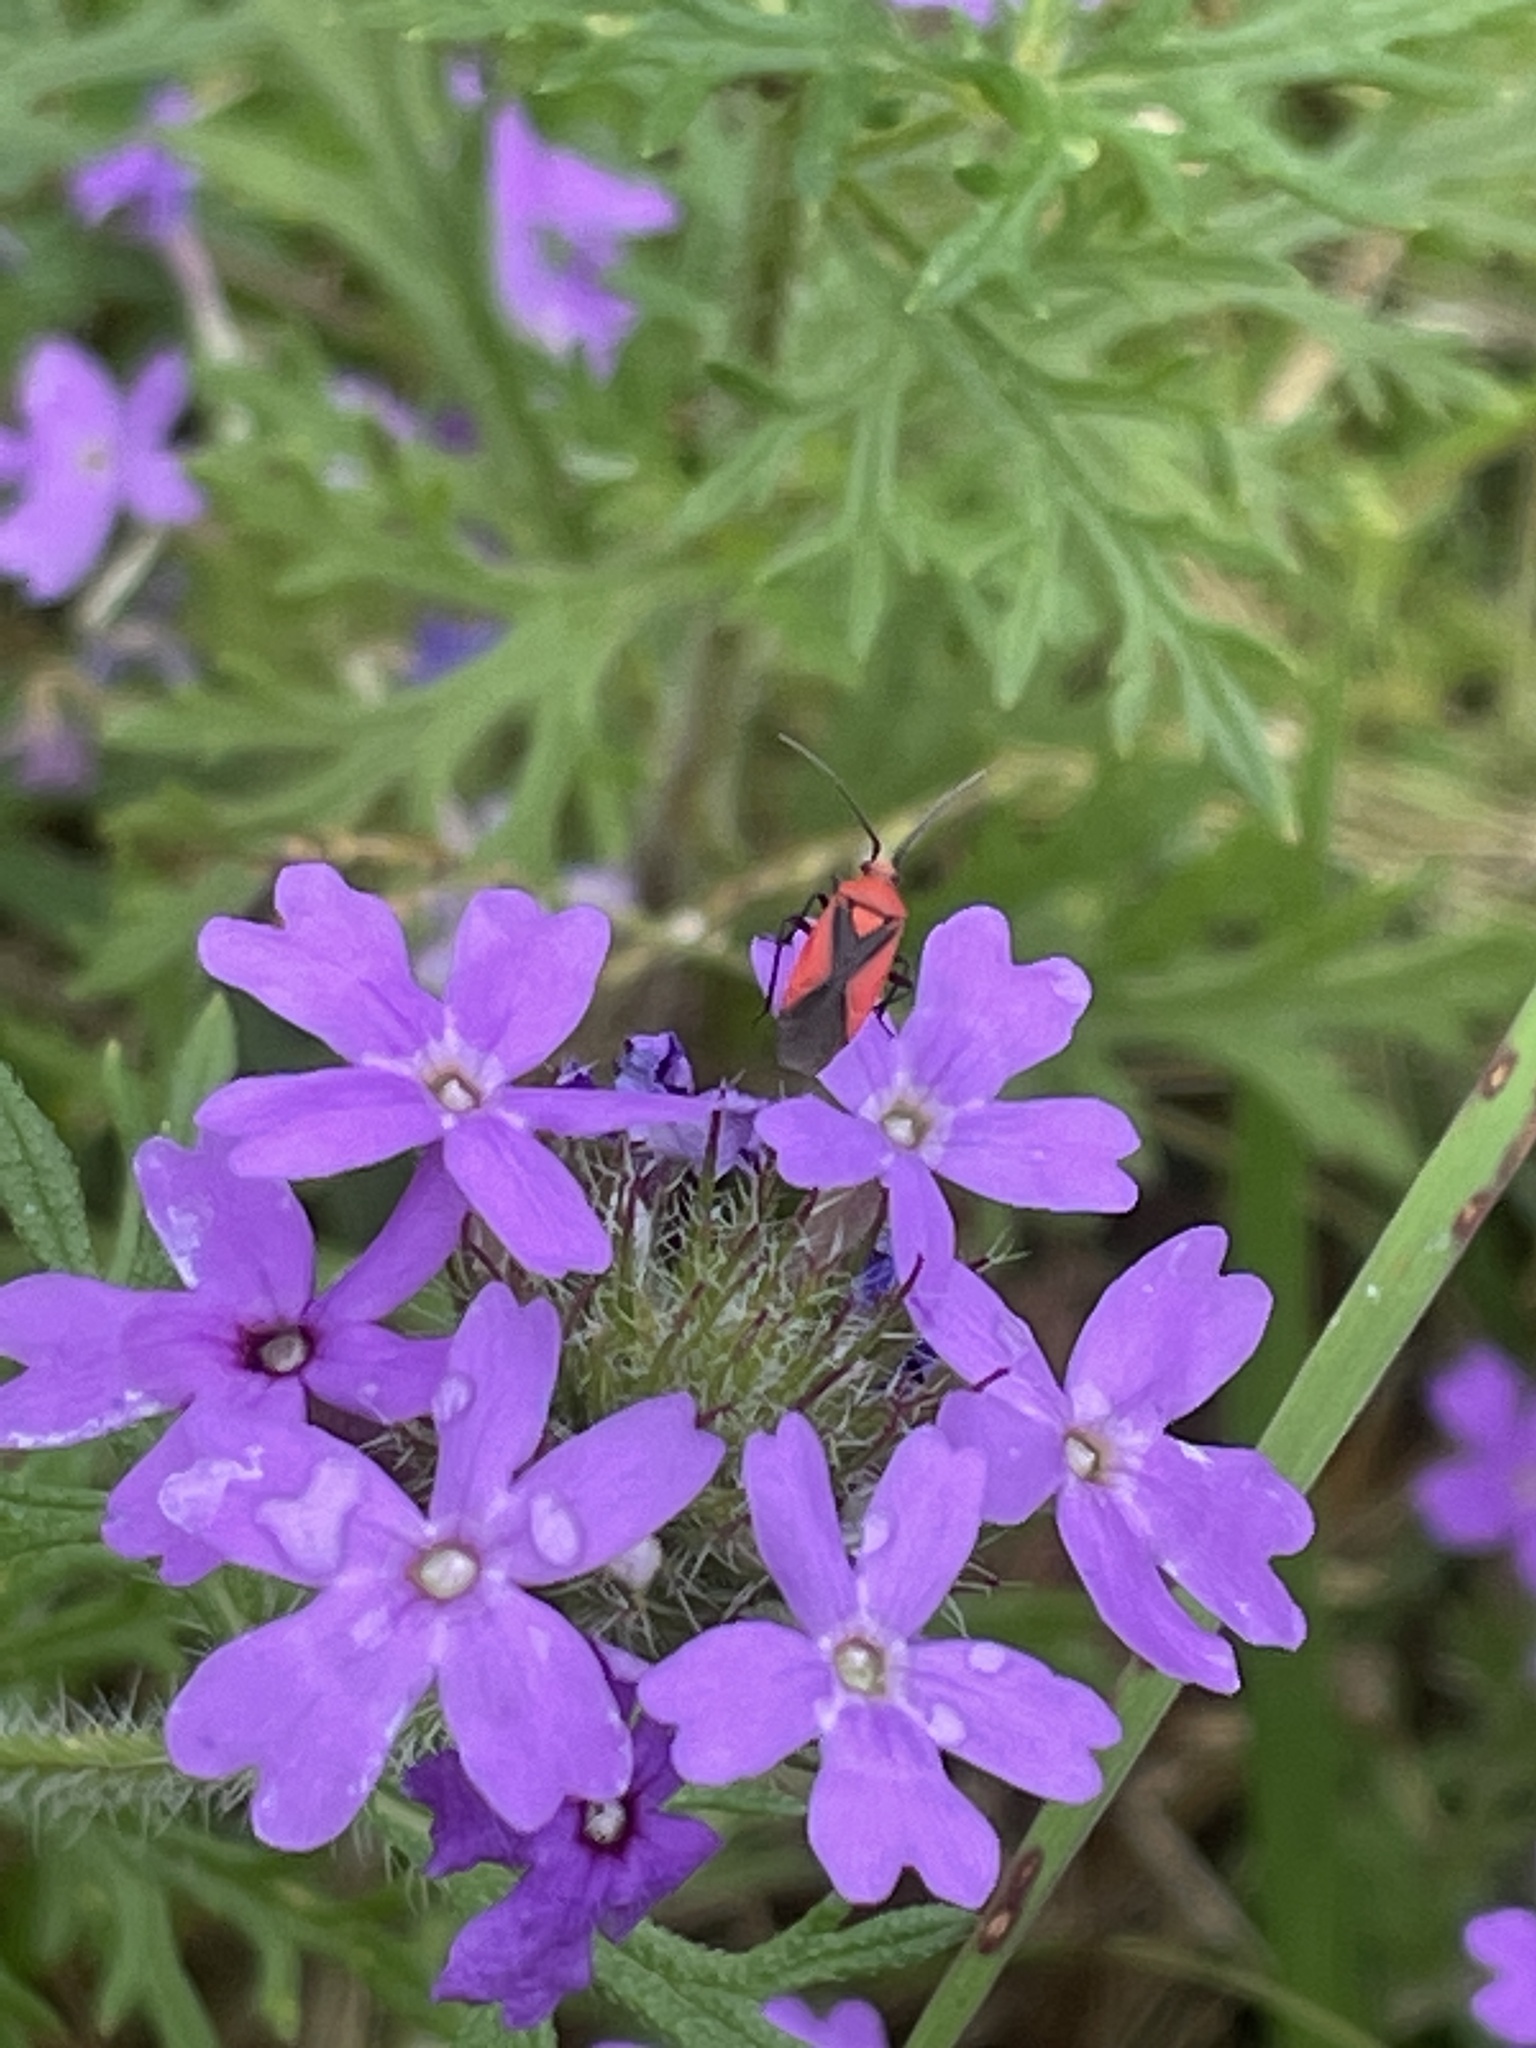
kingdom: Animalia
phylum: Arthropoda
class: Insecta
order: Hemiptera
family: Miridae
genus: Oncerometopus
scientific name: Oncerometopus nigriclavus
